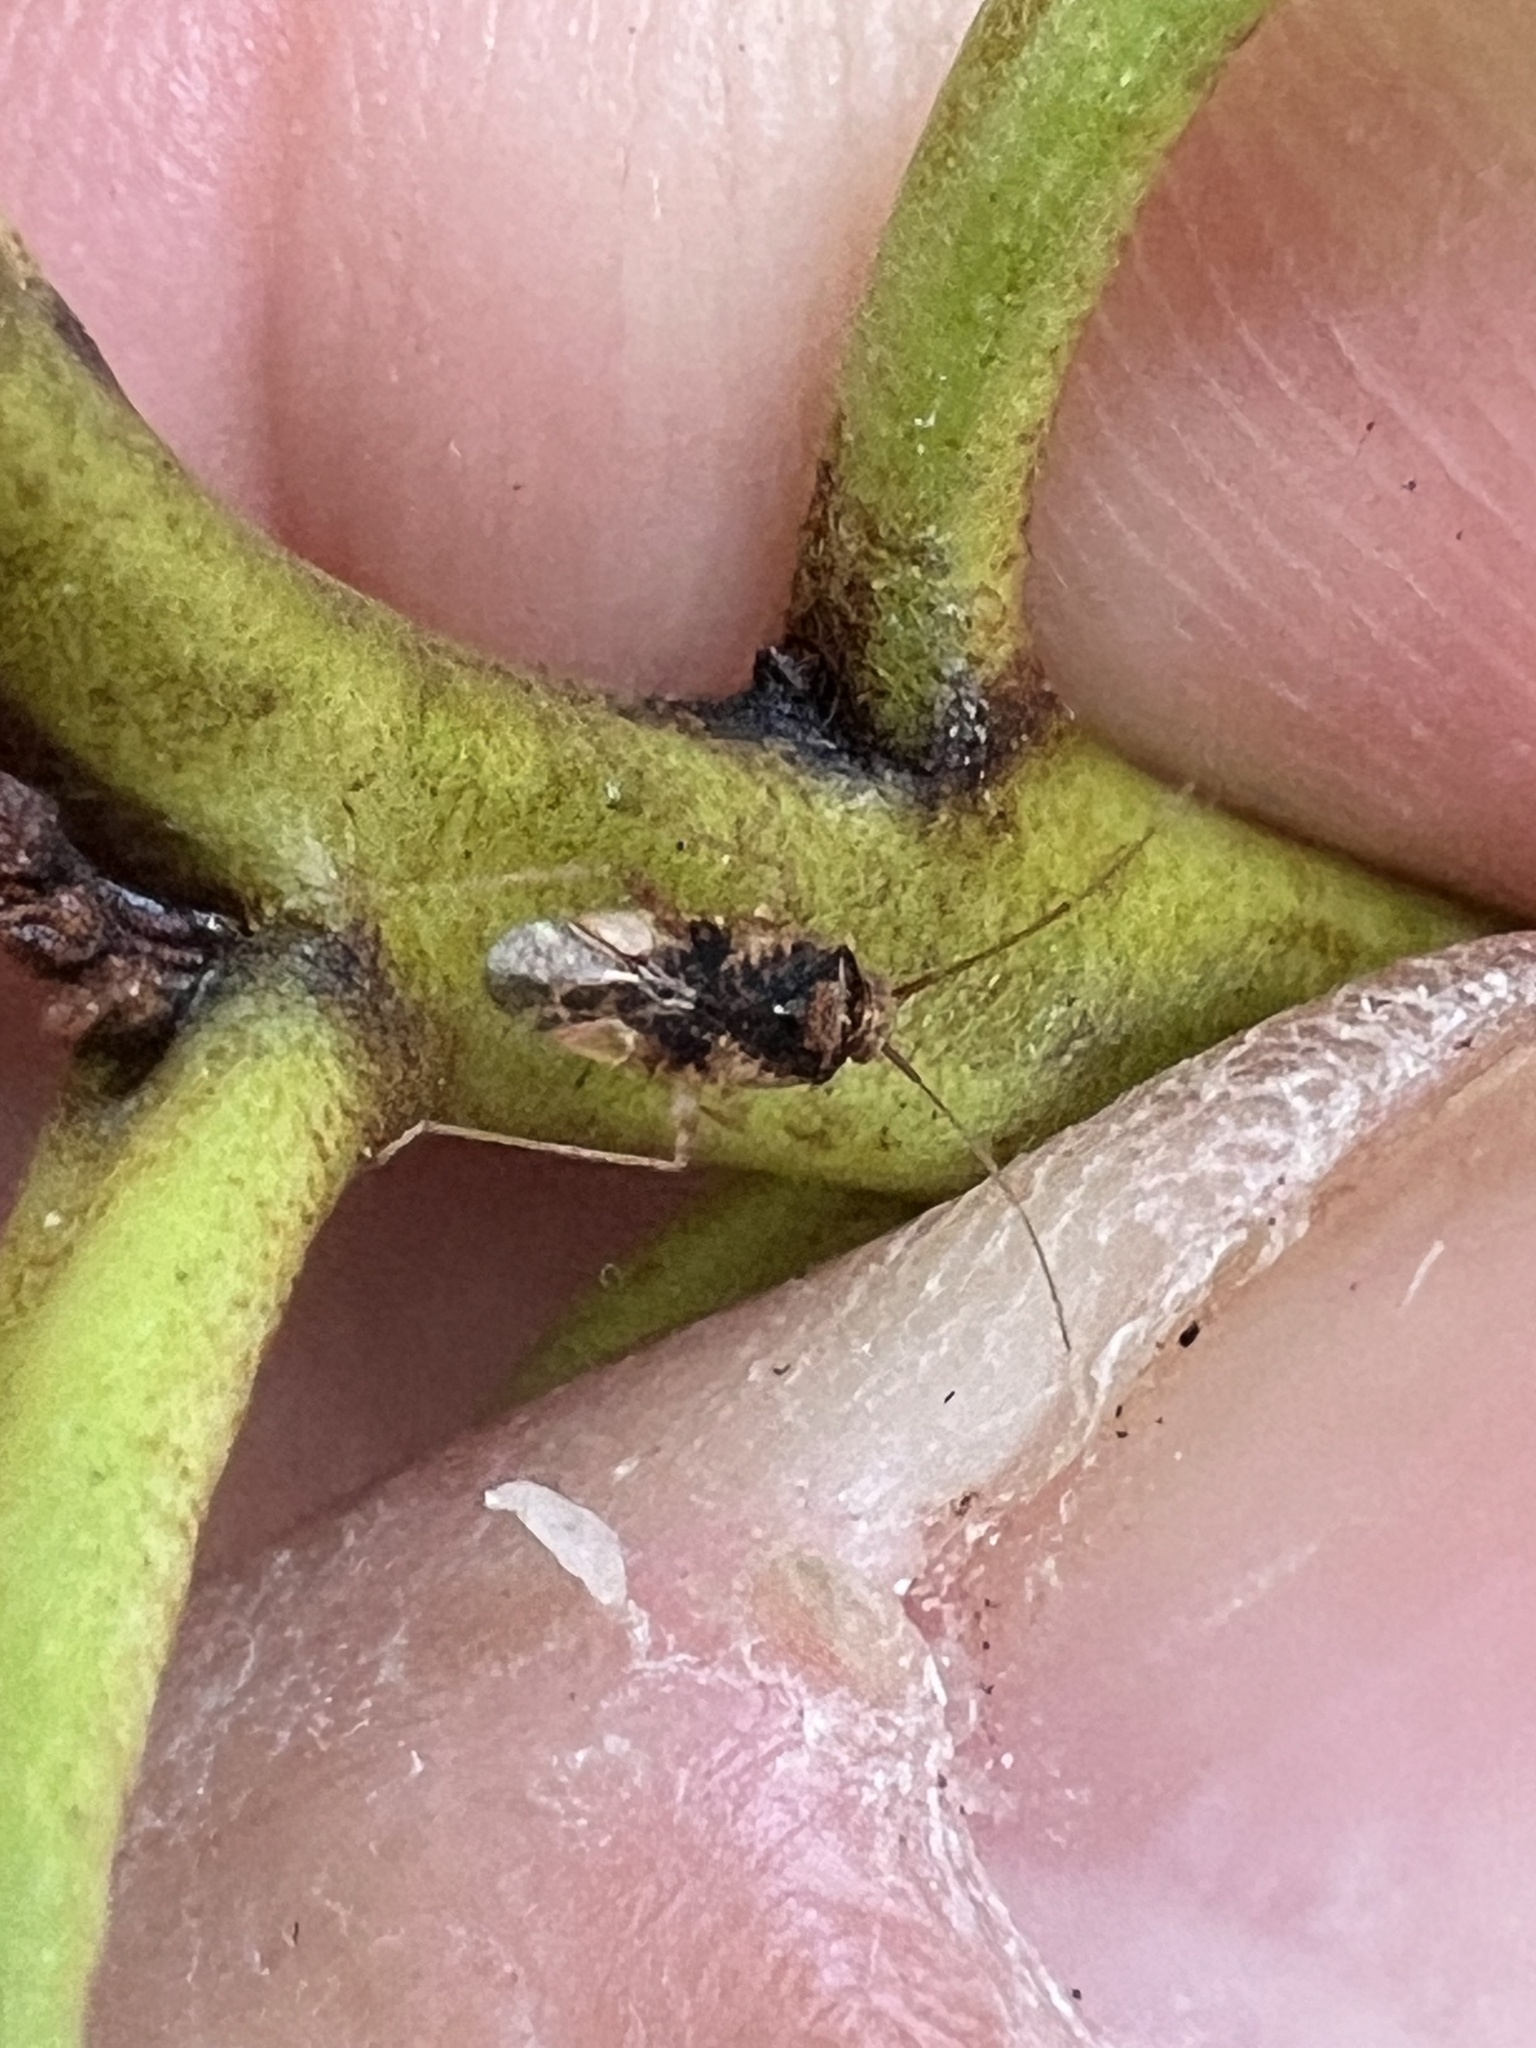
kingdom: Animalia
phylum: Arthropoda
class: Insecta
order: Hemiptera
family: Miridae
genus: Chinamiris
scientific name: Chinamiris aurantiacus
